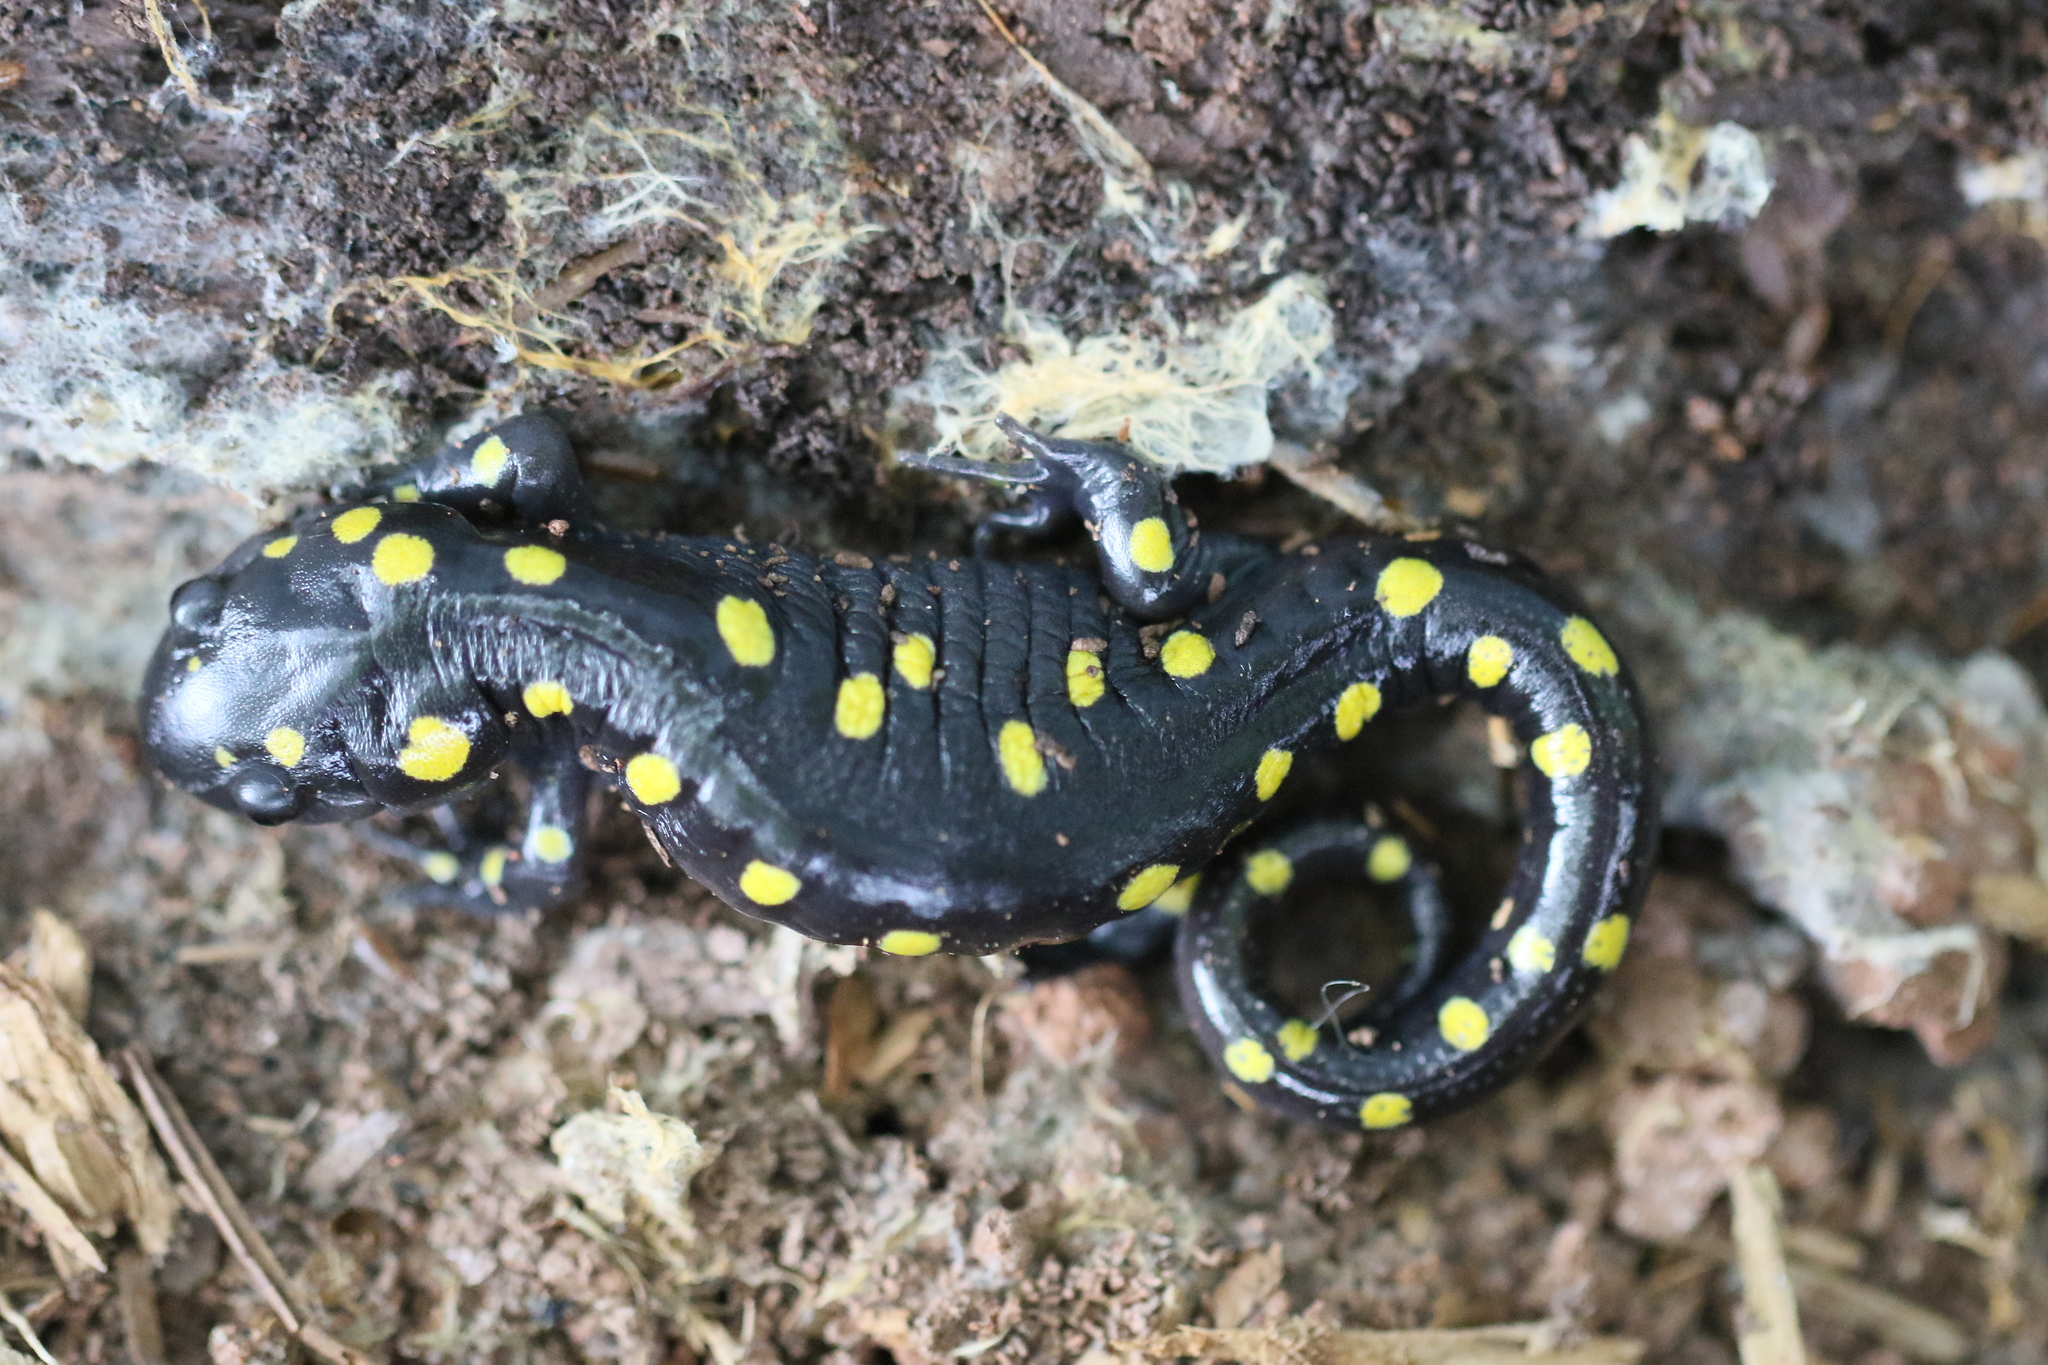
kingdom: Animalia
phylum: Chordata
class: Amphibia
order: Caudata
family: Ambystomatidae
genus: Ambystoma
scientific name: Ambystoma maculatum
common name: Spotted salamander
